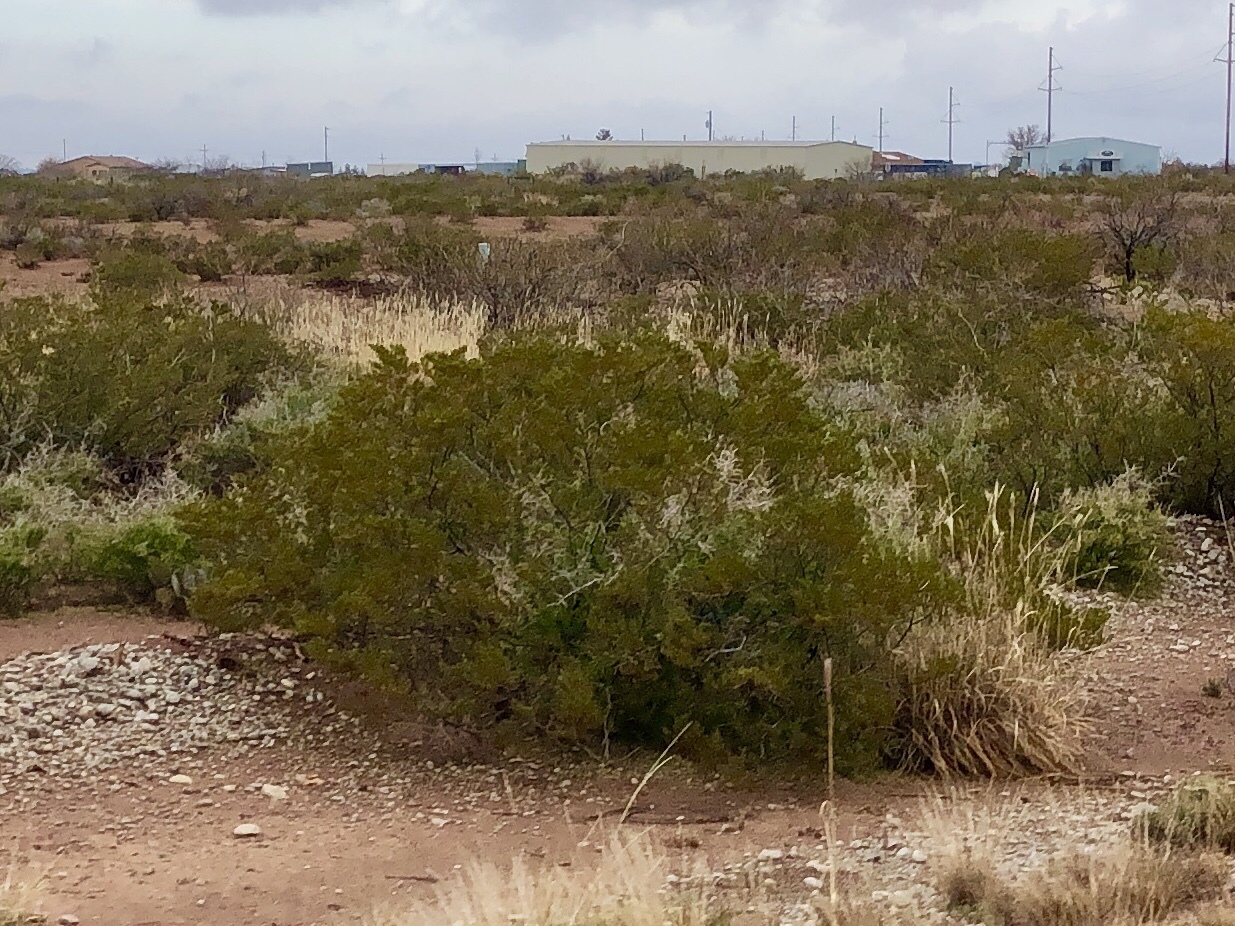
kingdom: Plantae
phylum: Tracheophyta
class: Magnoliopsida
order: Zygophyllales
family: Zygophyllaceae
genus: Larrea
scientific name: Larrea tridentata
